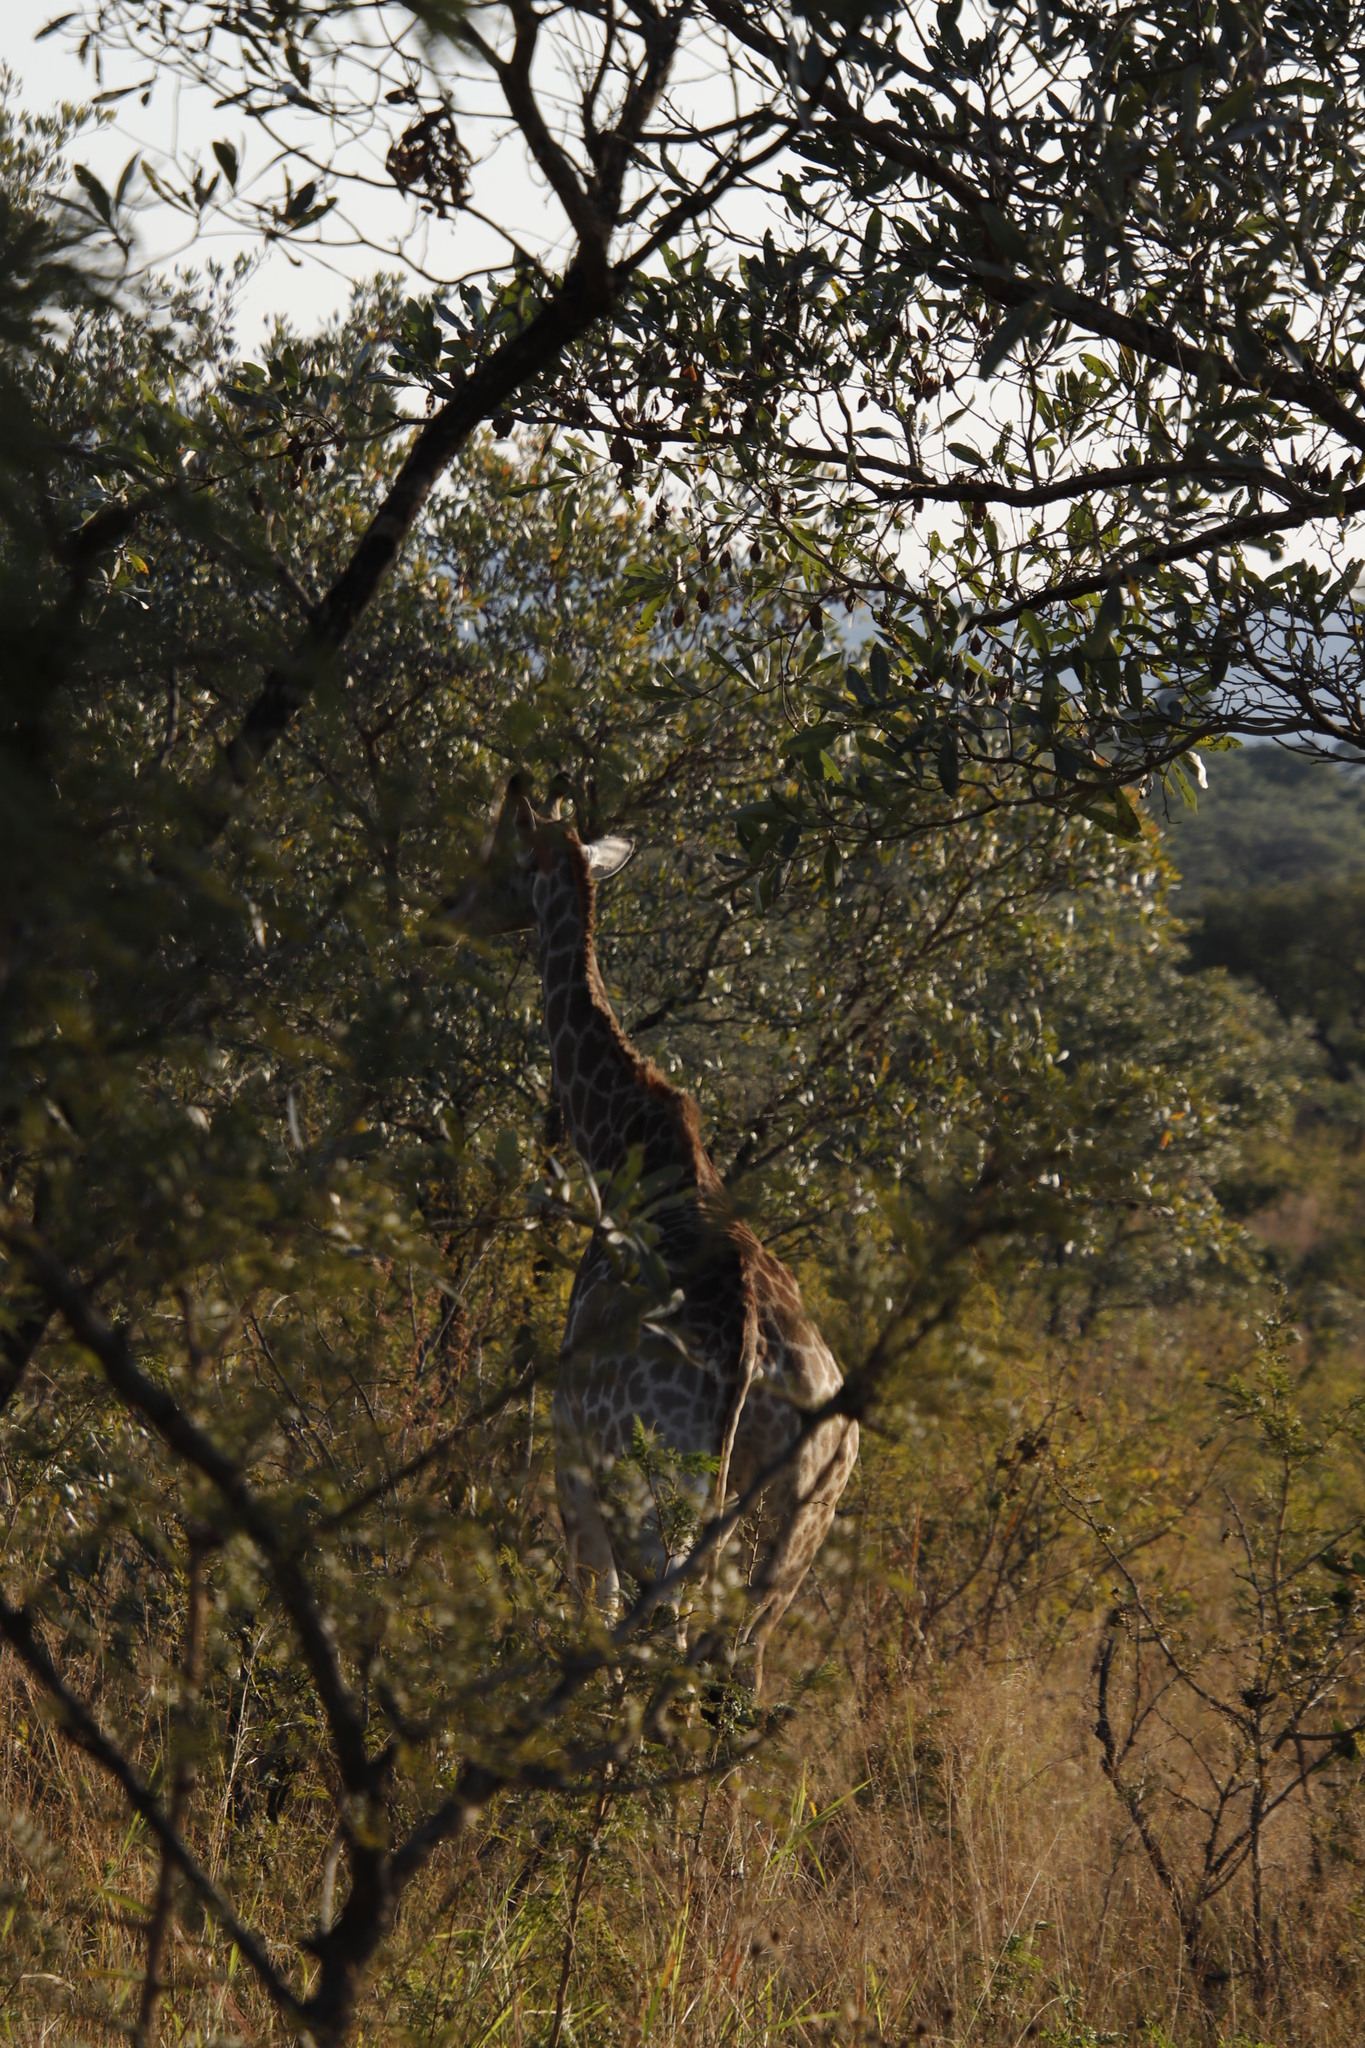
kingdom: Animalia
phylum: Chordata
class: Mammalia
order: Artiodactyla
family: Giraffidae
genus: Giraffa
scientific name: Giraffa giraffa
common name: Southern giraffe
